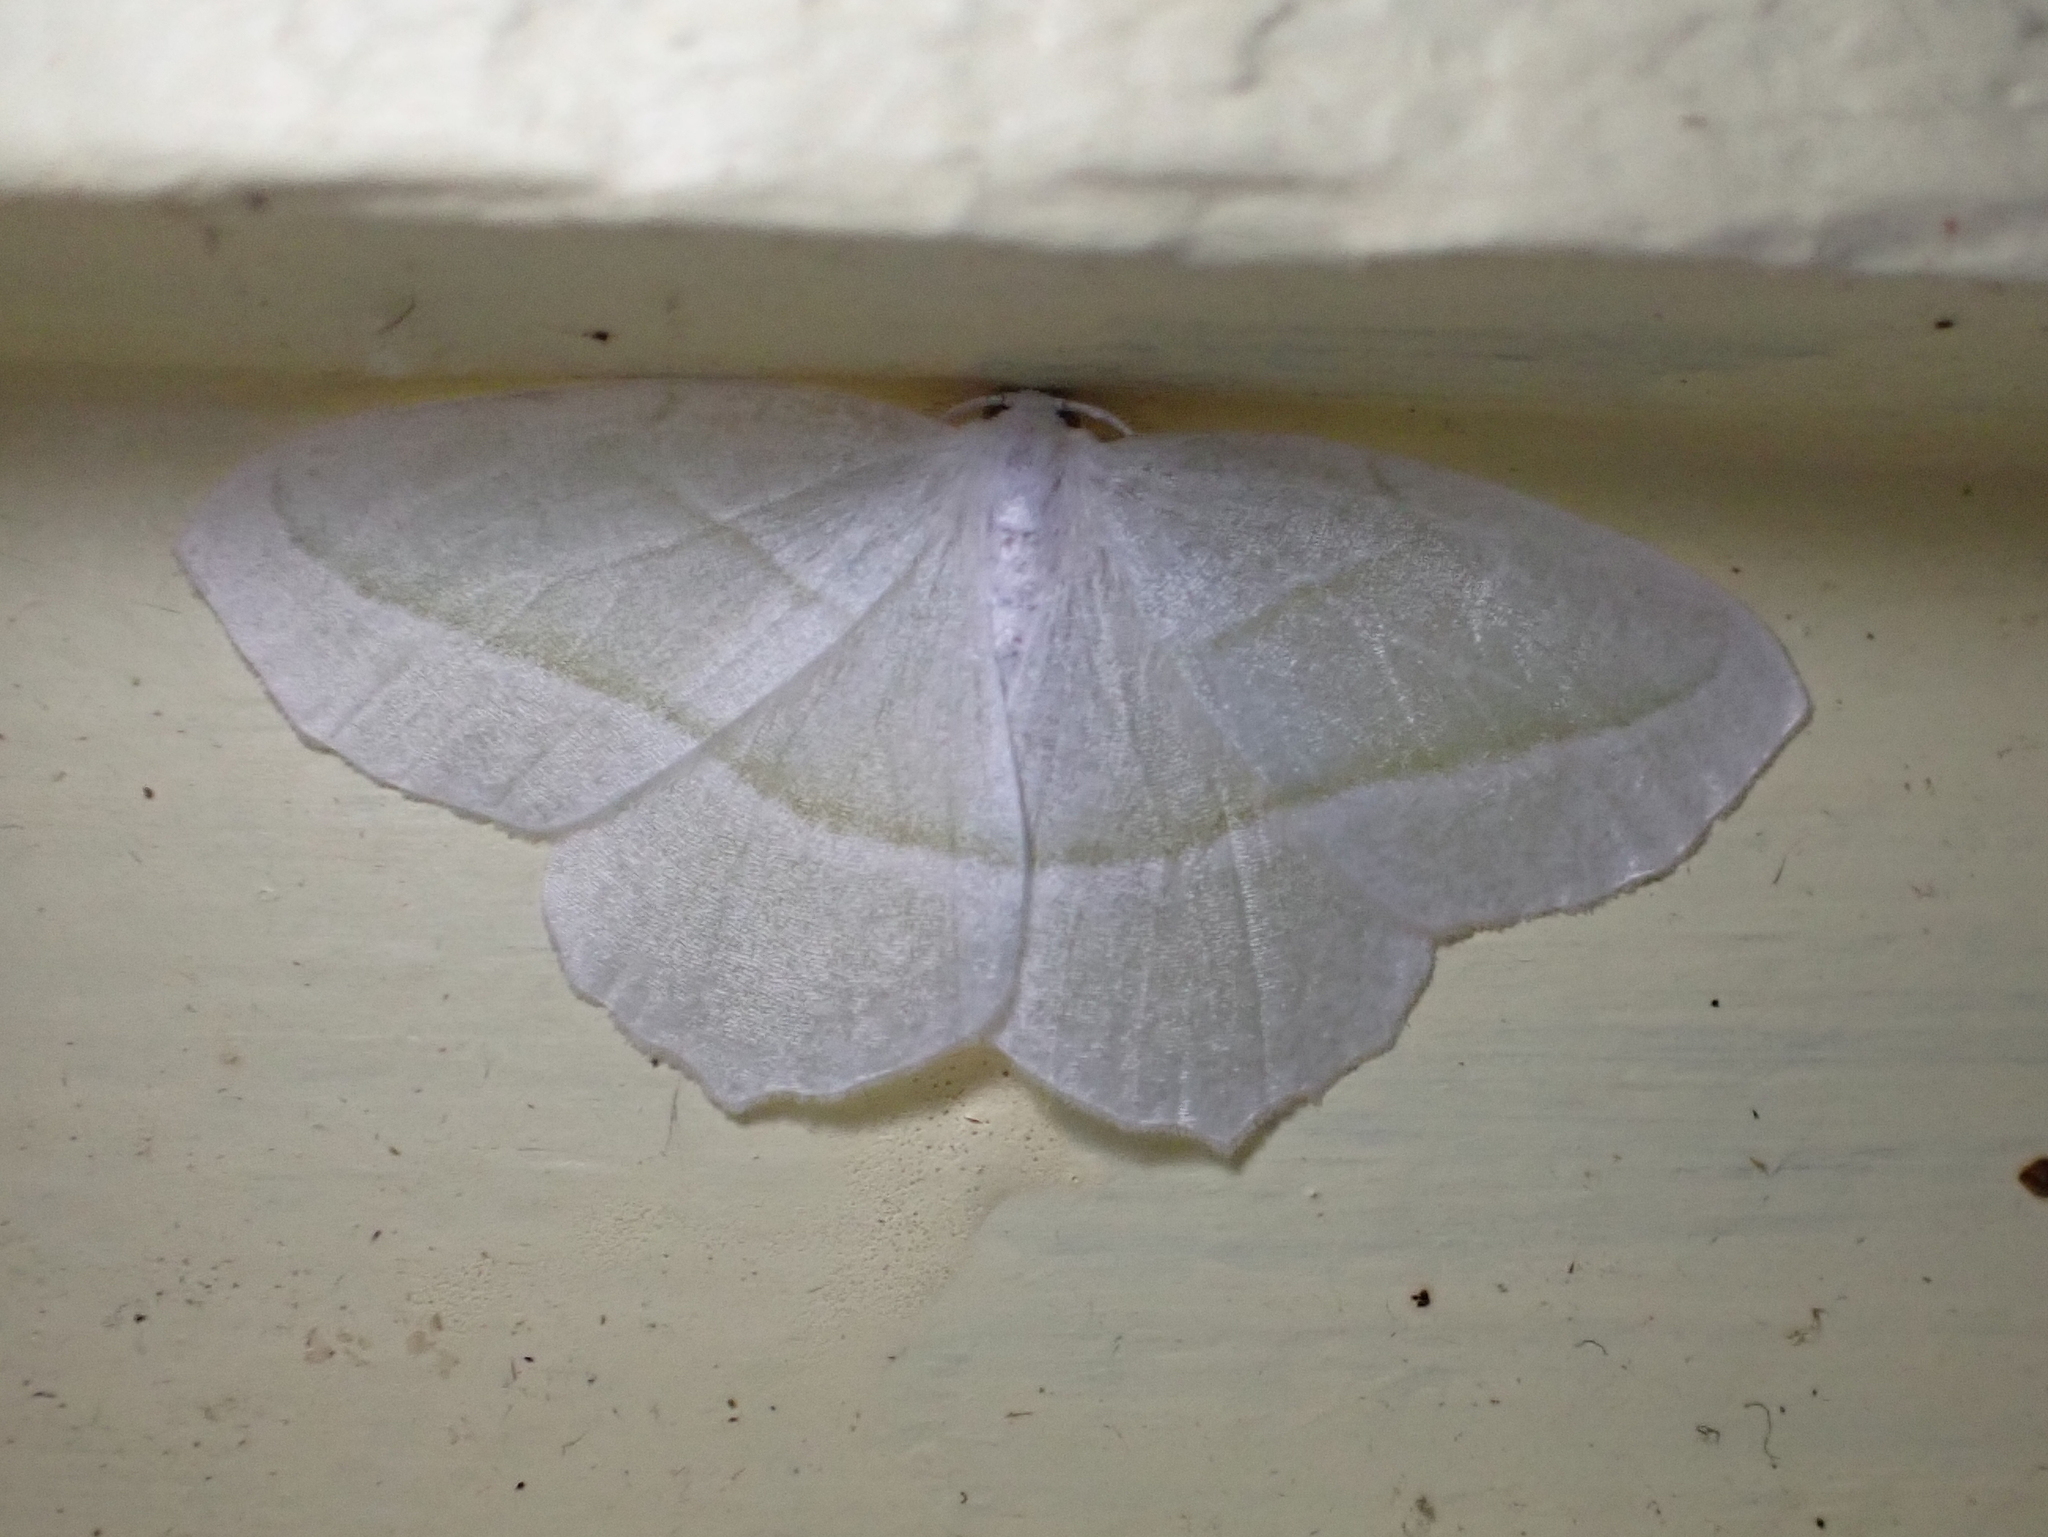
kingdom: Animalia
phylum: Arthropoda
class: Insecta
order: Lepidoptera
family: Geometridae
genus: Campaea
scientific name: Campaea perlata
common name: Fringed looper
